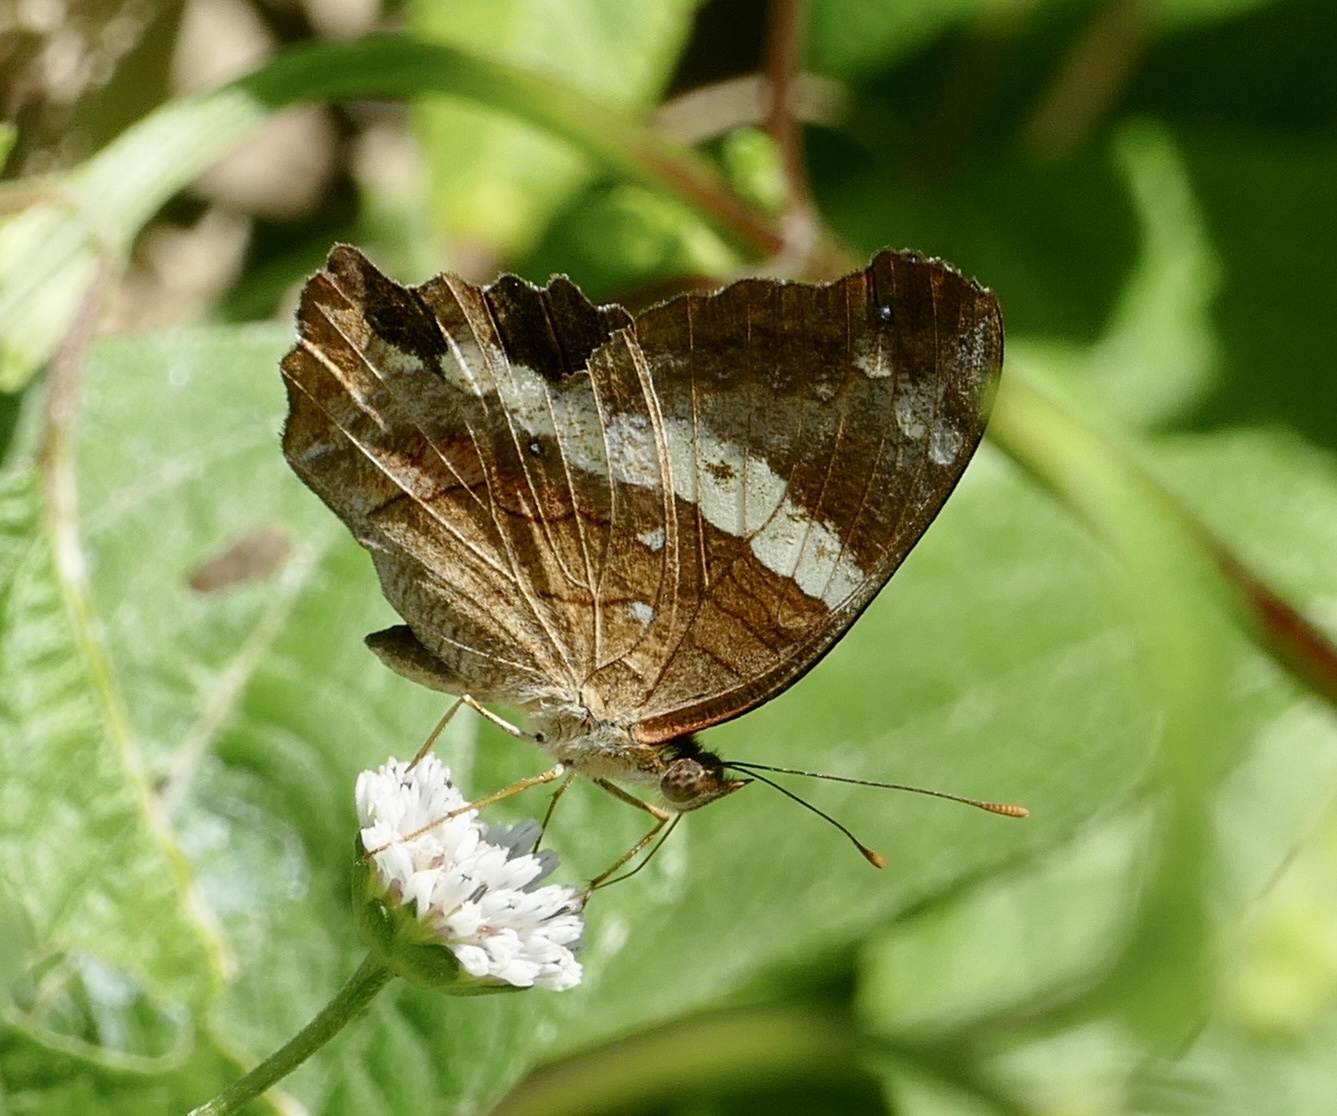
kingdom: Animalia
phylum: Arthropoda
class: Insecta
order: Lepidoptera
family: Nymphalidae
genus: Anartia
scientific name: Anartia fatima
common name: Banded peacock
